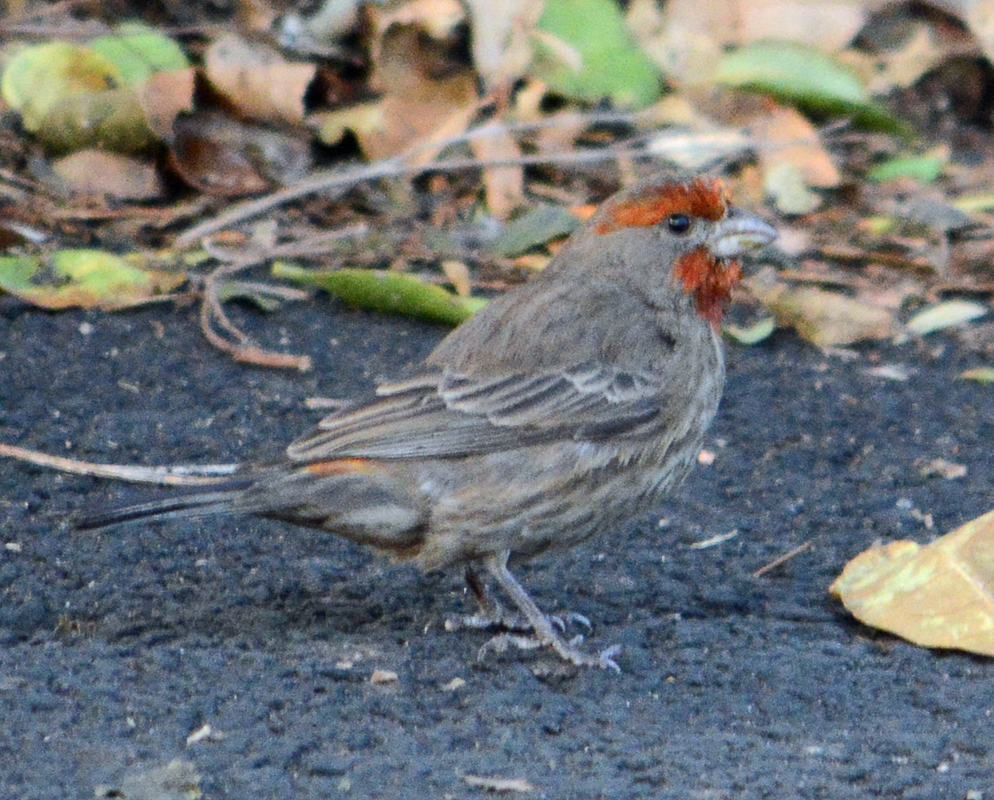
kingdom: Animalia
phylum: Chordata
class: Aves
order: Passeriformes
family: Fringillidae
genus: Haemorhous
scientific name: Haemorhous mexicanus
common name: House finch
